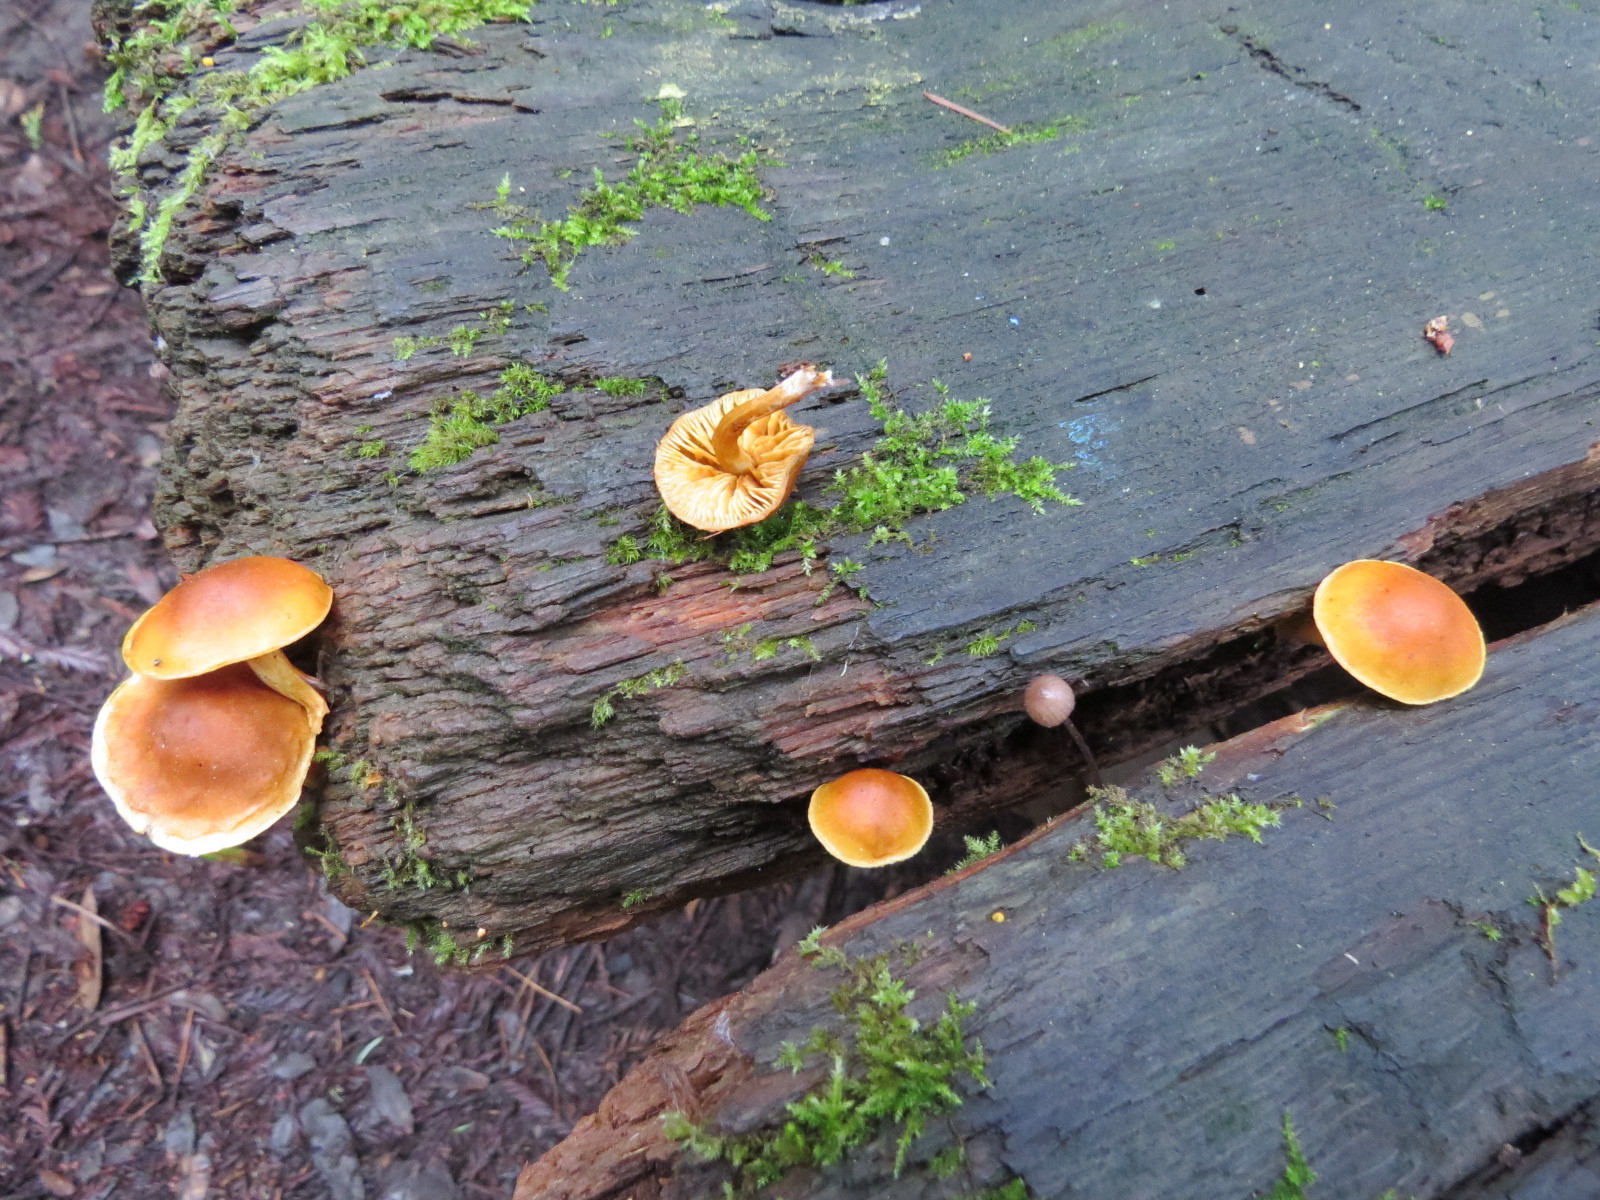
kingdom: Fungi
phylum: Basidiomycota
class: Agaricomycetes
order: Agaricales
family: Hymenogastraceae
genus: Galerina
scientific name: Galerina marginata
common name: Funeral bell
